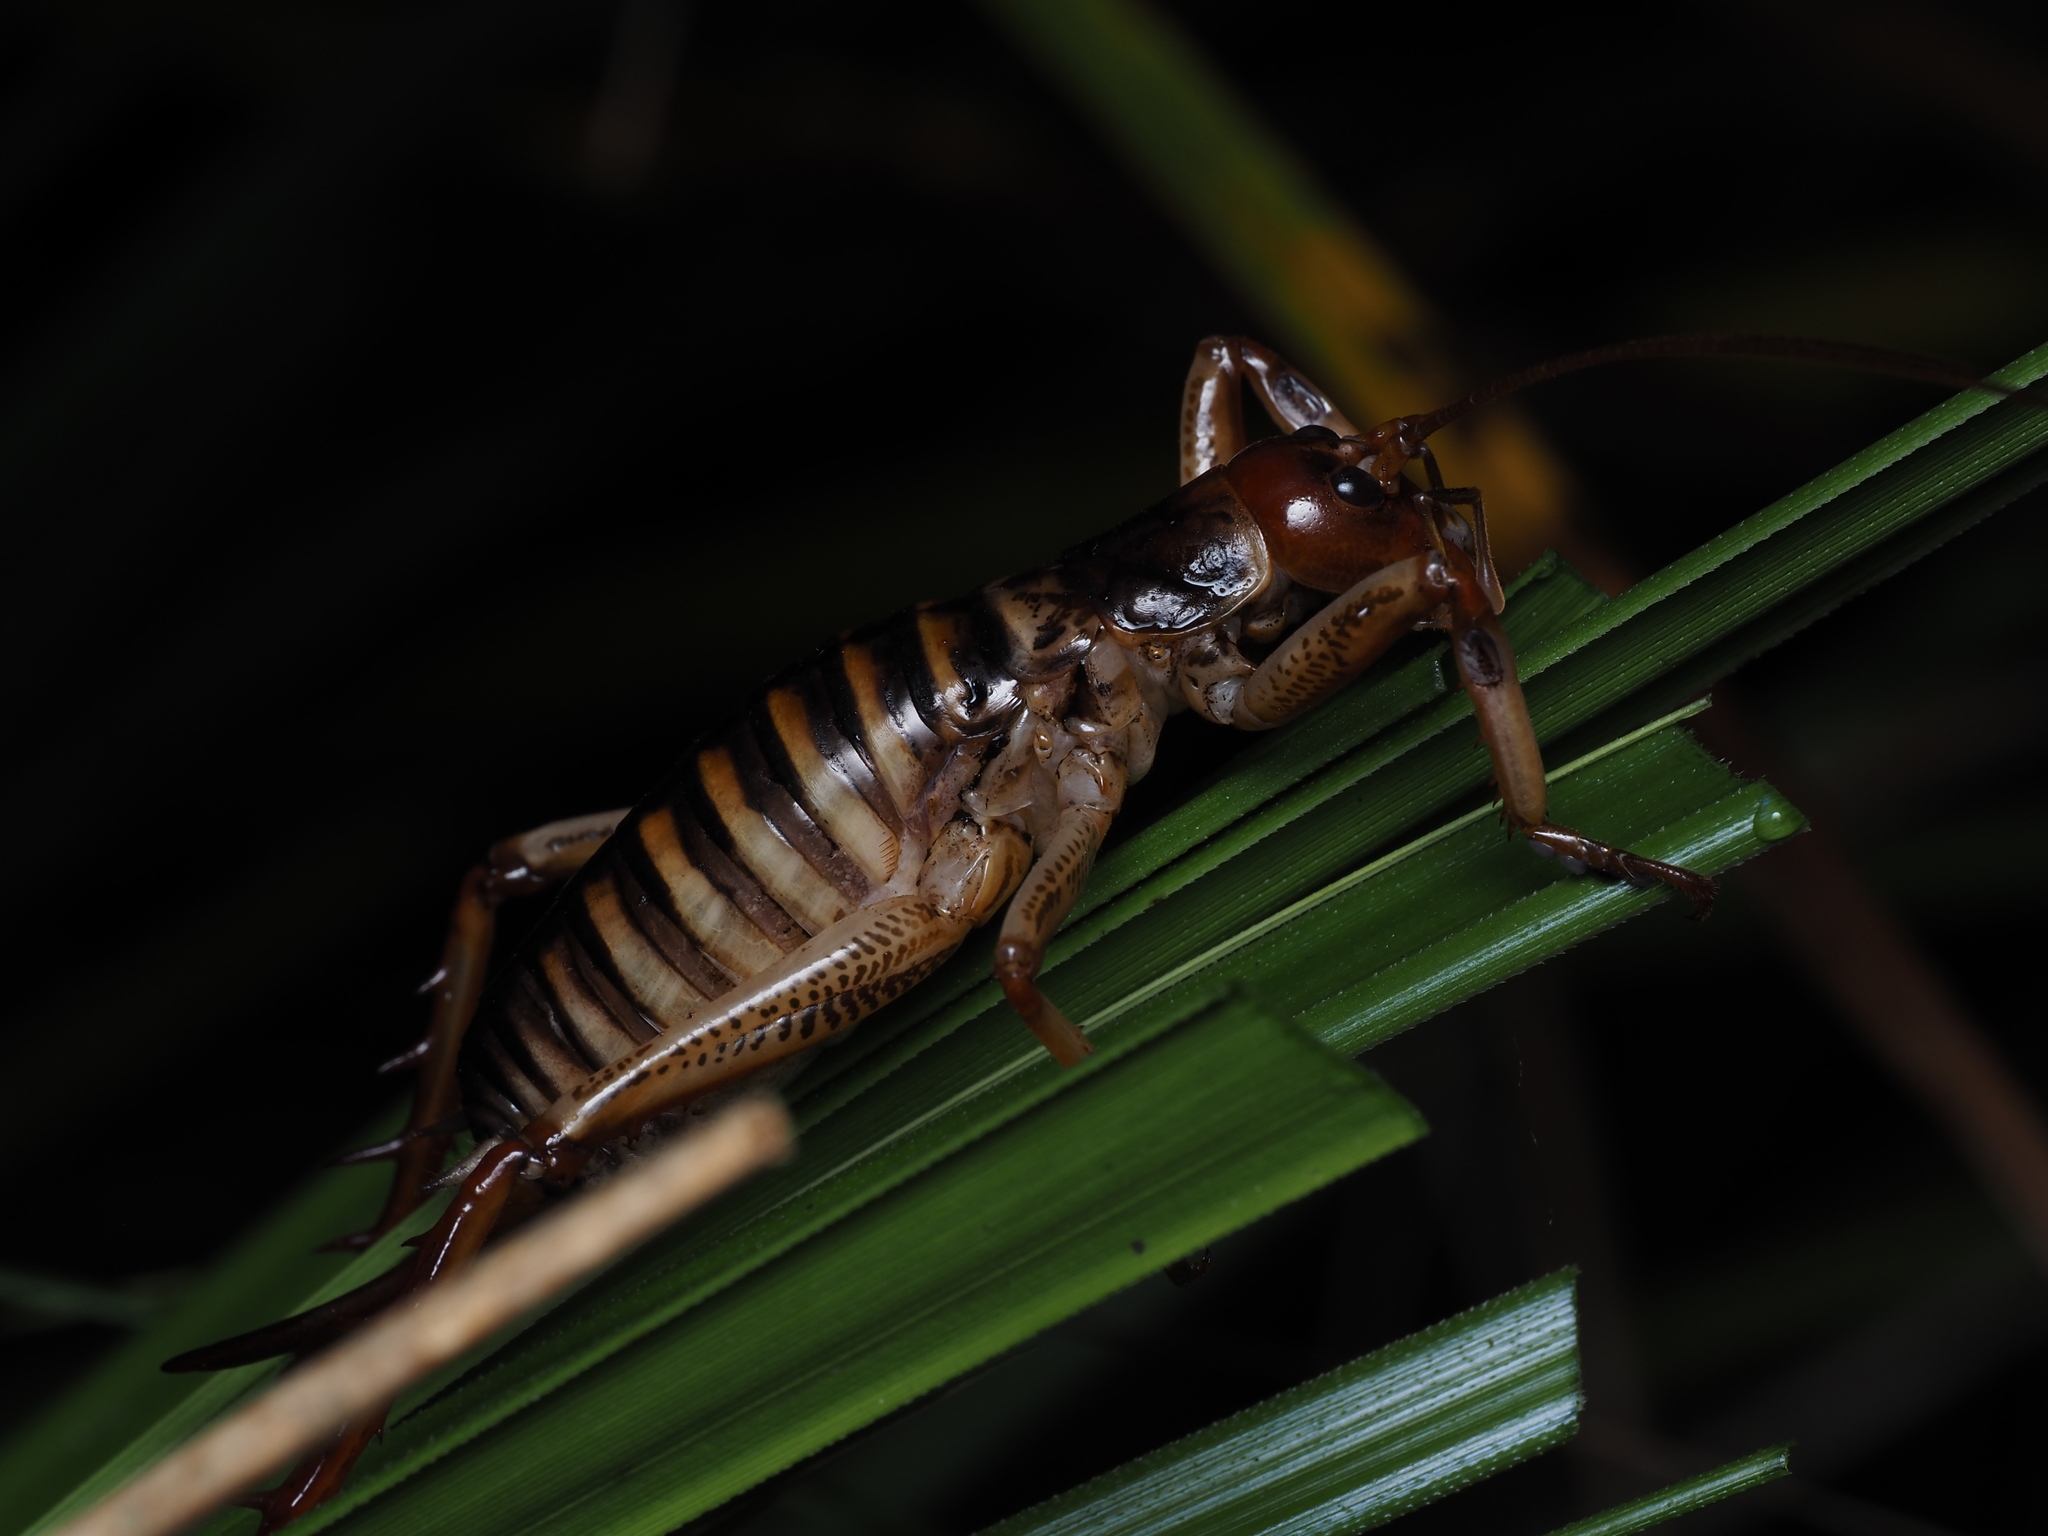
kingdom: Animalia
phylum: Arthropoda
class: Insecta
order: Orthoptera
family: Anostostomatidae
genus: Hemideina
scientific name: Hemideina crassidens
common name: Wellington tree weta
